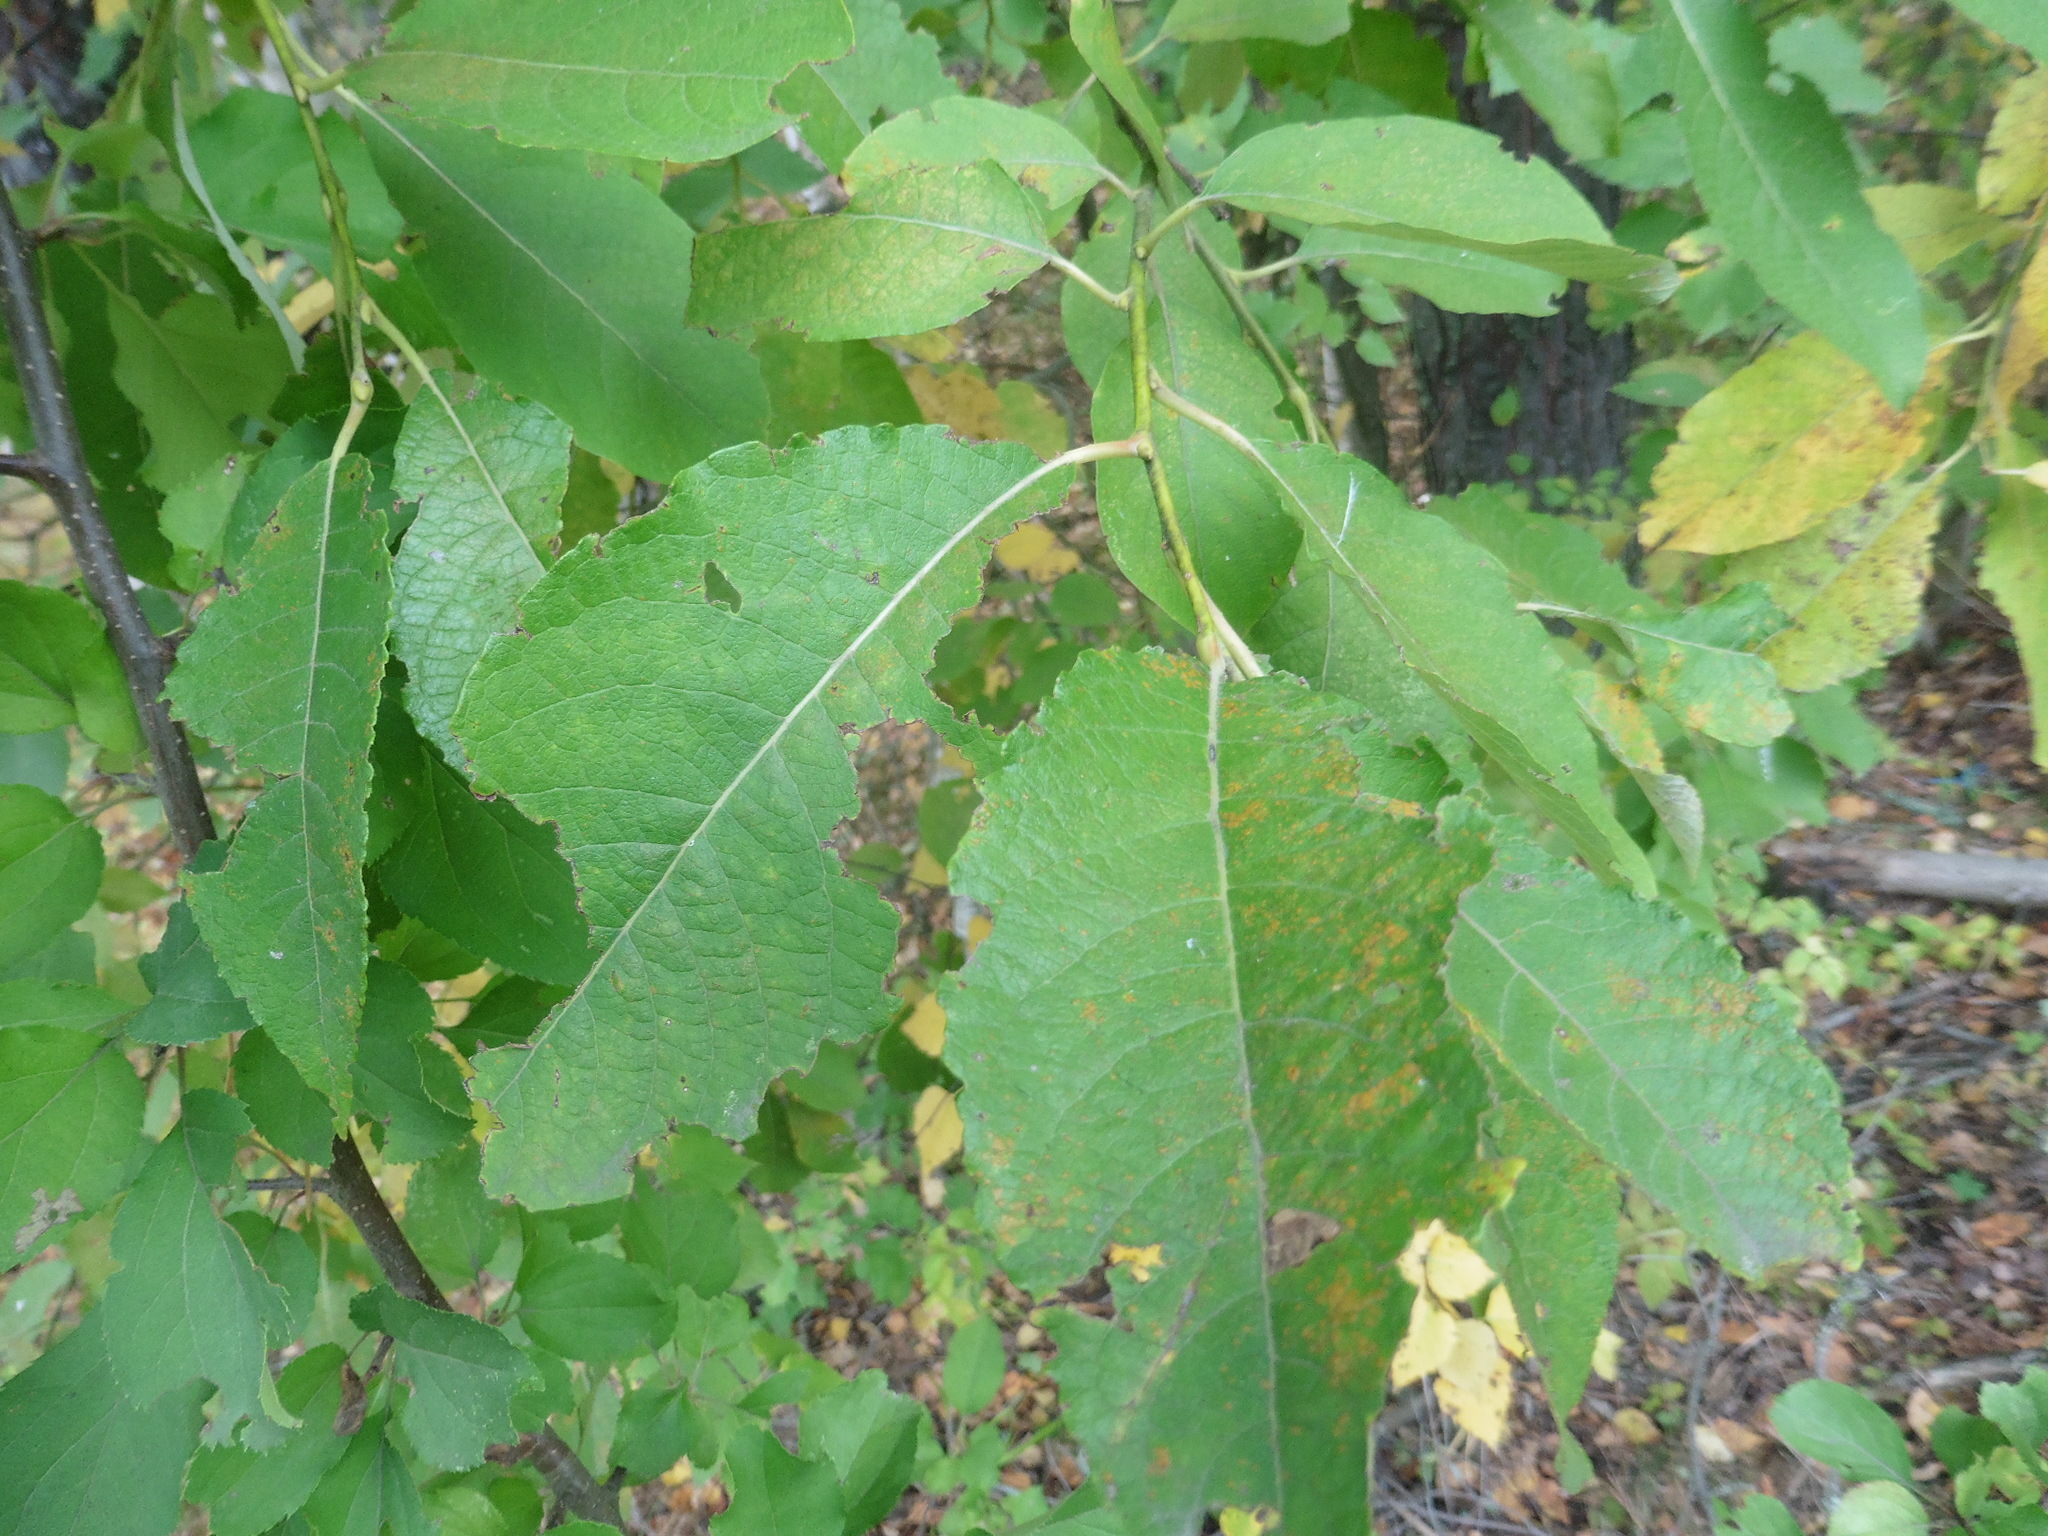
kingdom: Plantae
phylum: Tracheophyta
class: Magnoliopsida
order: Malpighiales
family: Salicaceae
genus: Salix
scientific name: Salix caprea
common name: Goat willow
